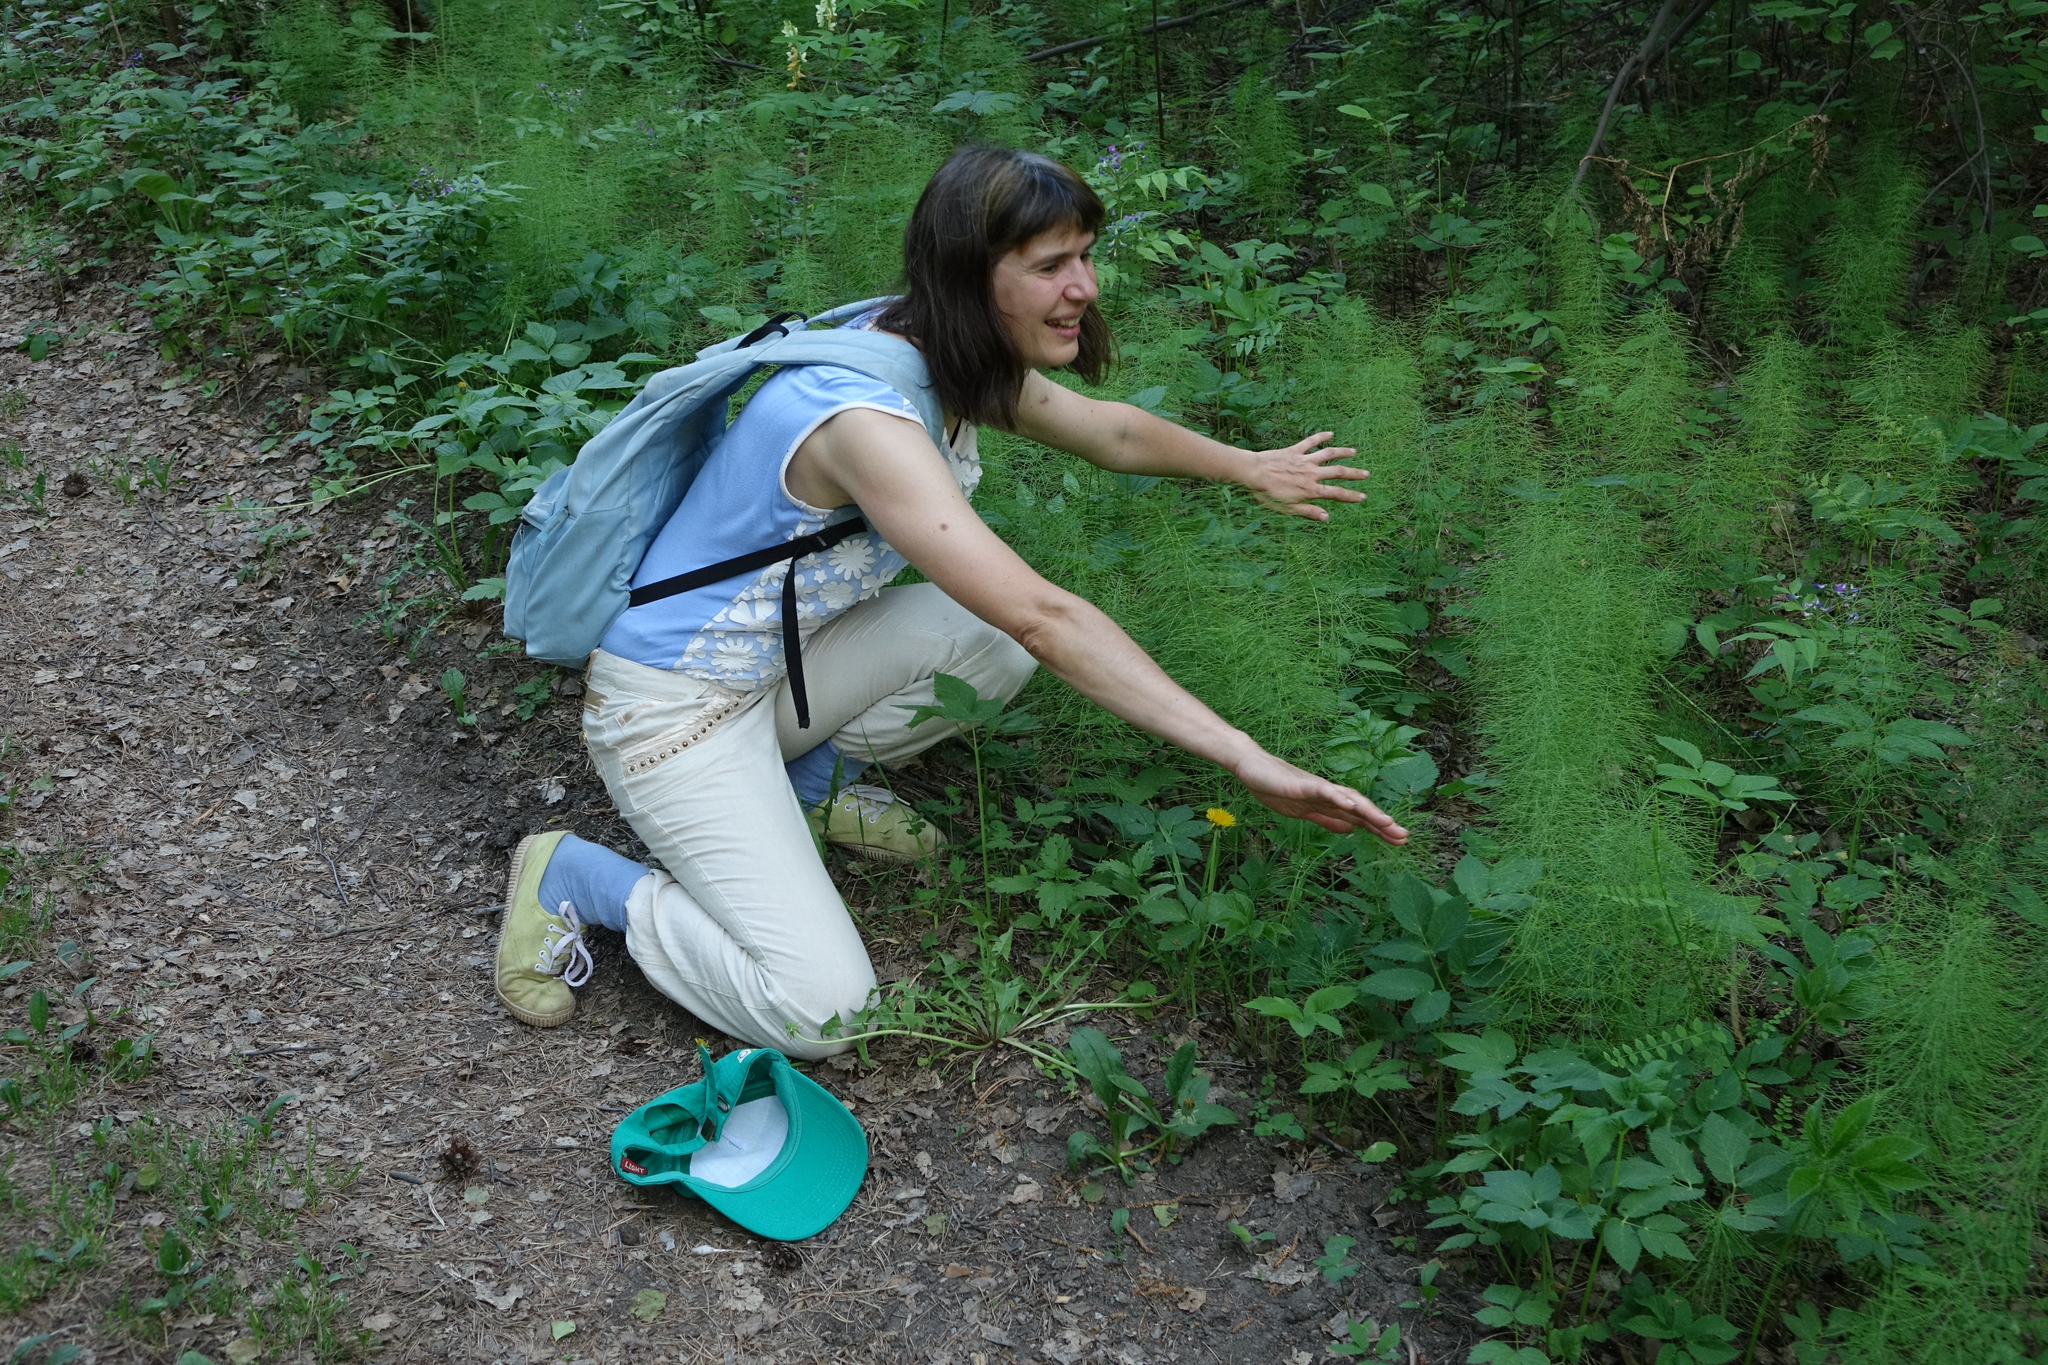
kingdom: Plantae
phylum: Tracheophyta
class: Polypodiopsida
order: Equisetales
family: Equisetaceae
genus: Equisetum
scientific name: Equisetum sylvaticum
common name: Wood horsetail
